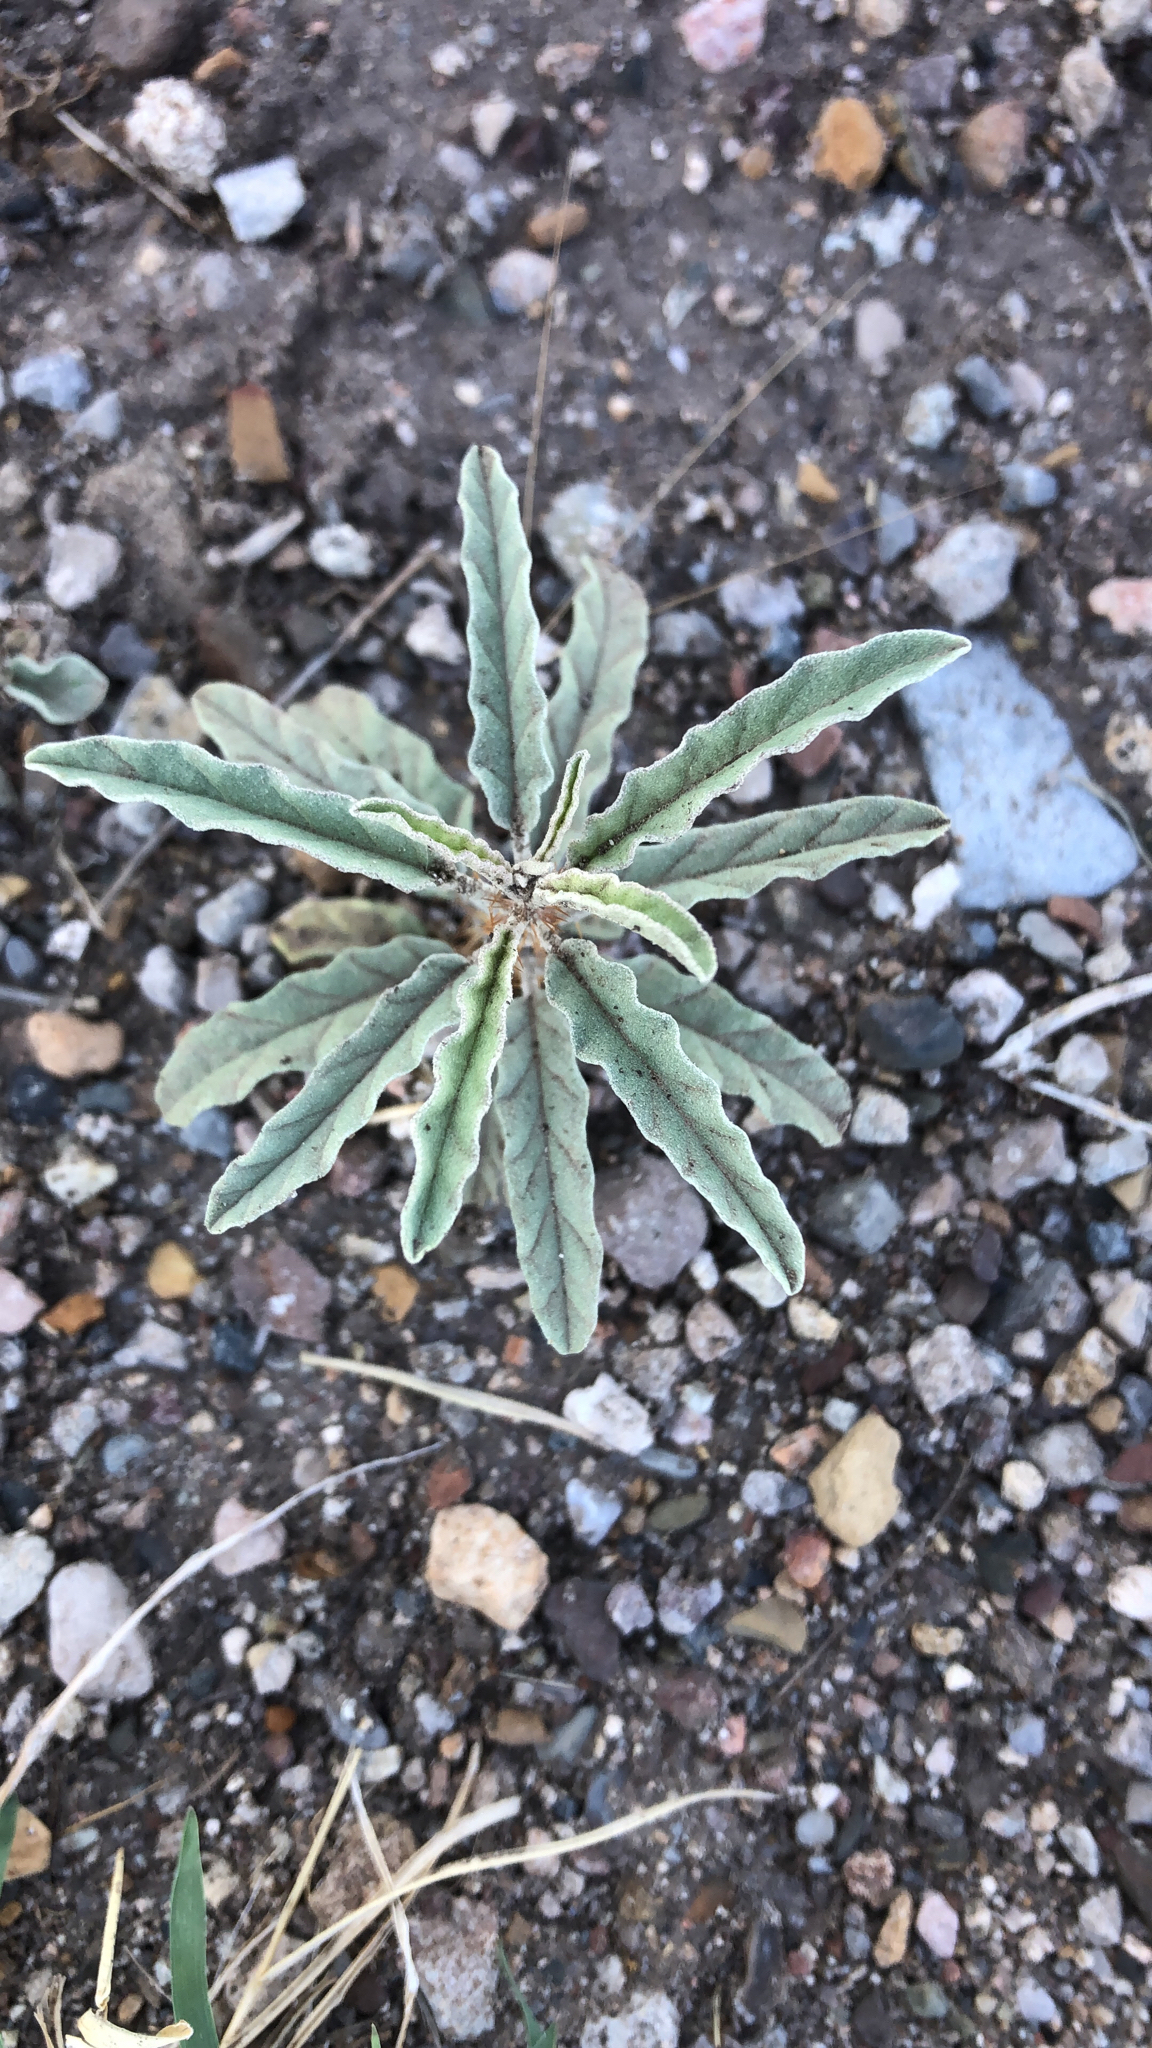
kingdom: Plantae
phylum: Tracheophyta
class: Magnoliopsida
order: Solanales
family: Solanaceae
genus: Solanum
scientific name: Solanum elaeagnifolium
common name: Silverleaf nightshade
